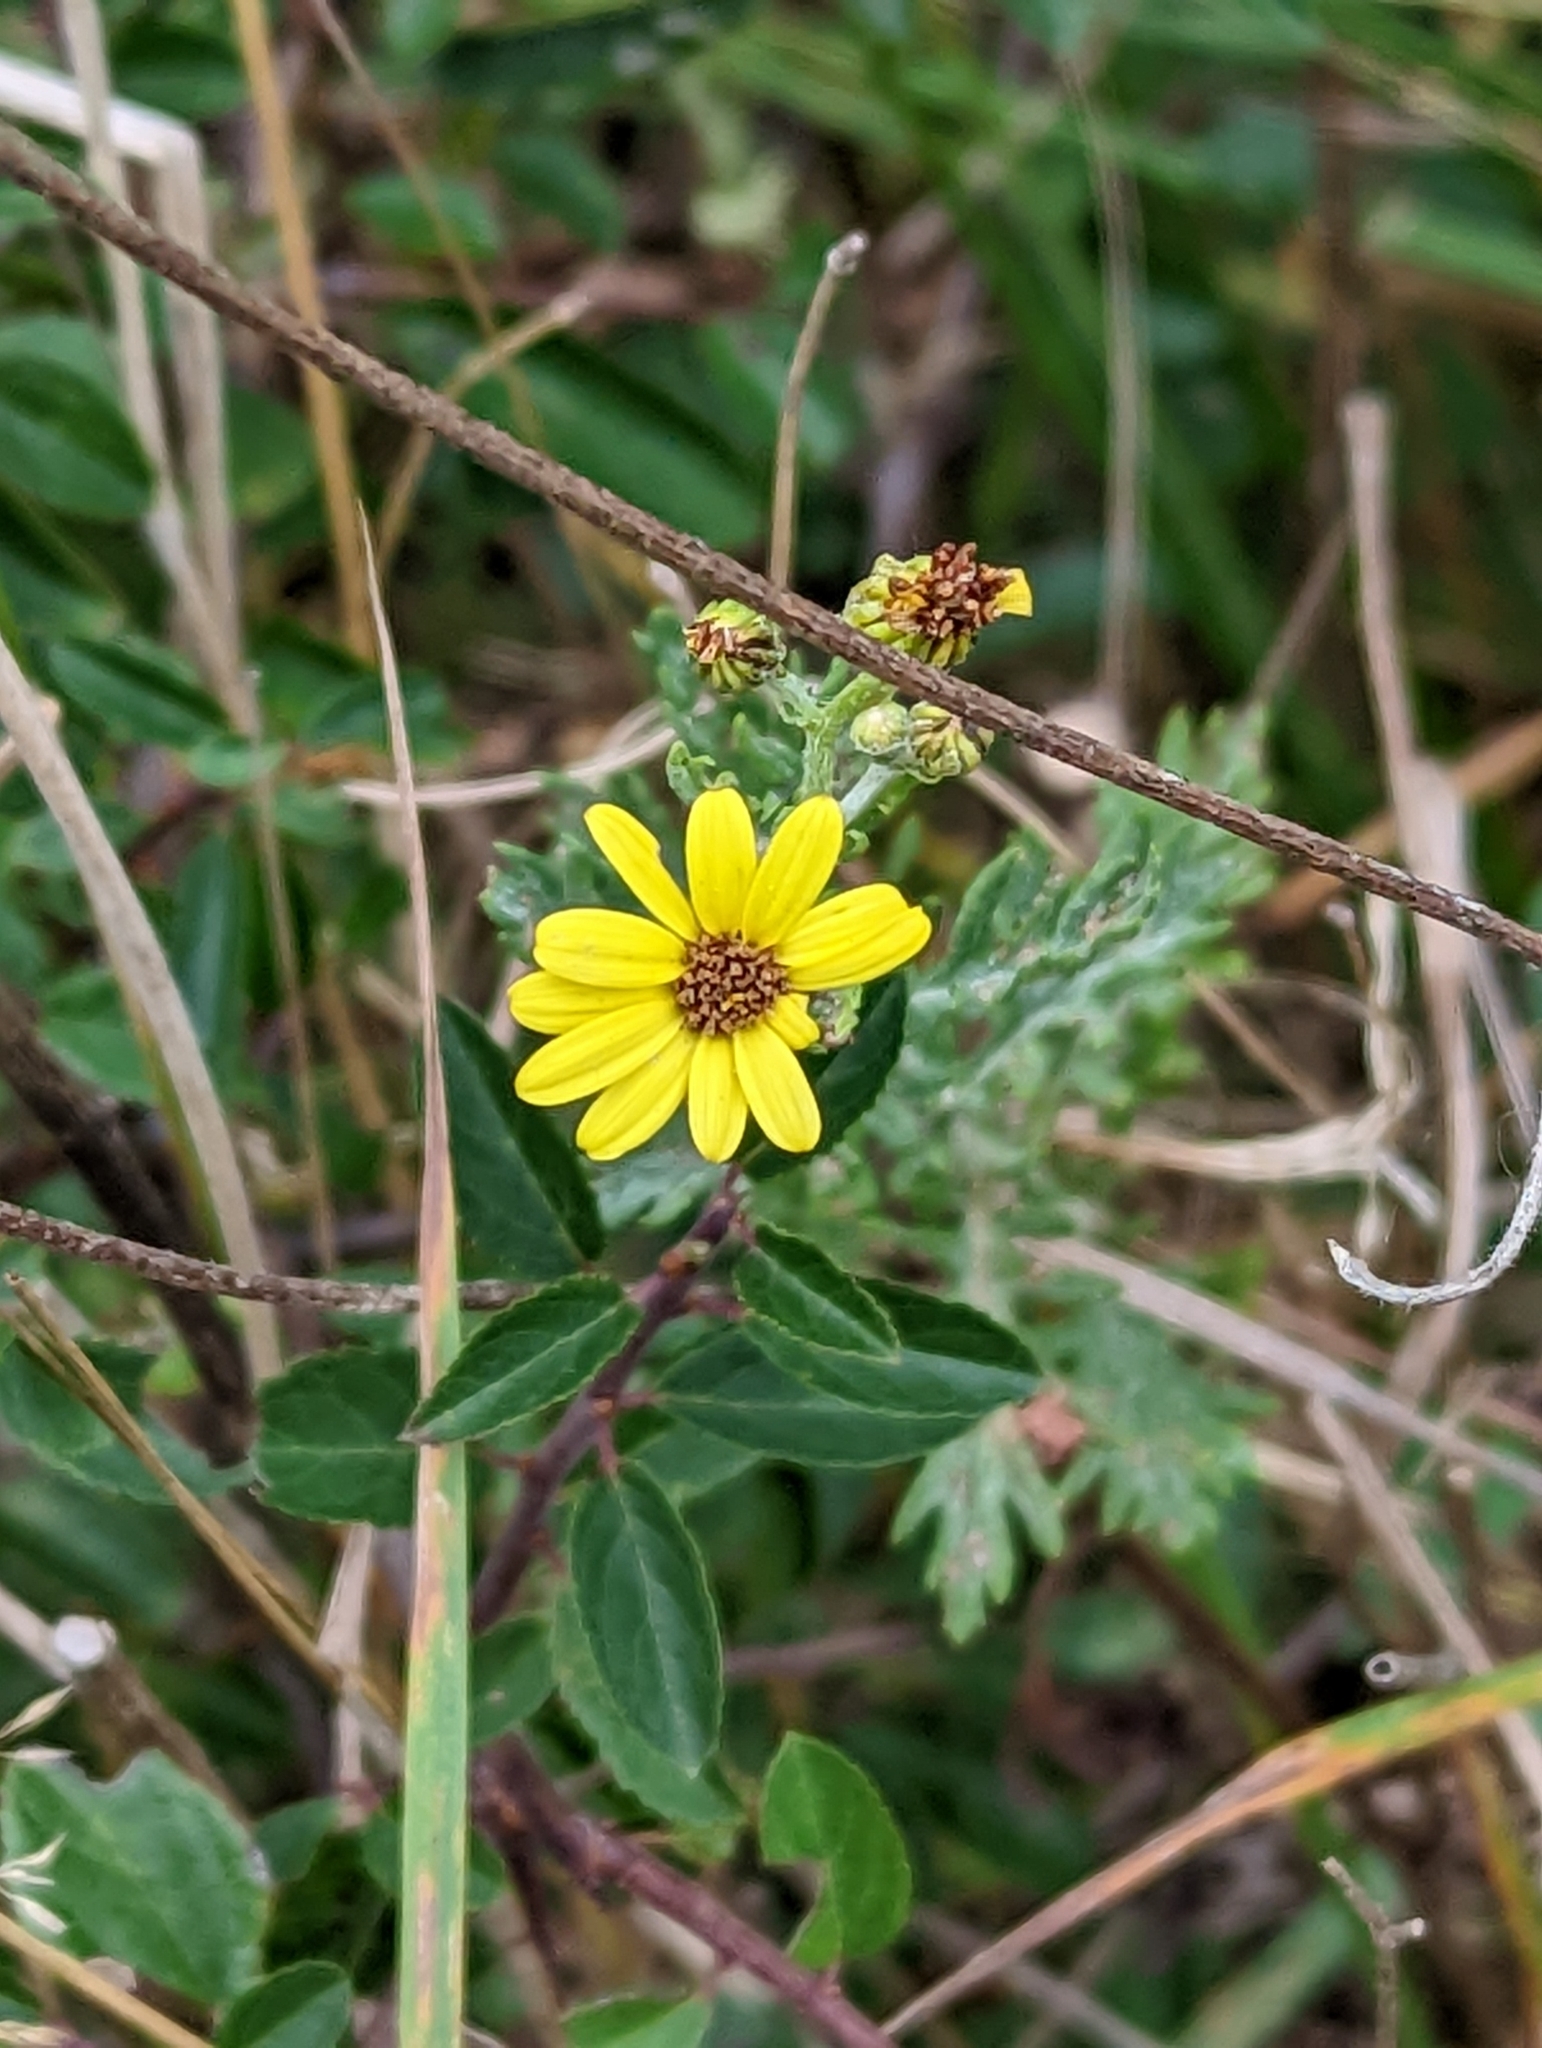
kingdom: Plantae
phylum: Tracheophyta
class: Magnoliopsida
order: Asterales
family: Asteraceae
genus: Jacobaea
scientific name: Jacobaea erucifolia
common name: Hoary ragwort
